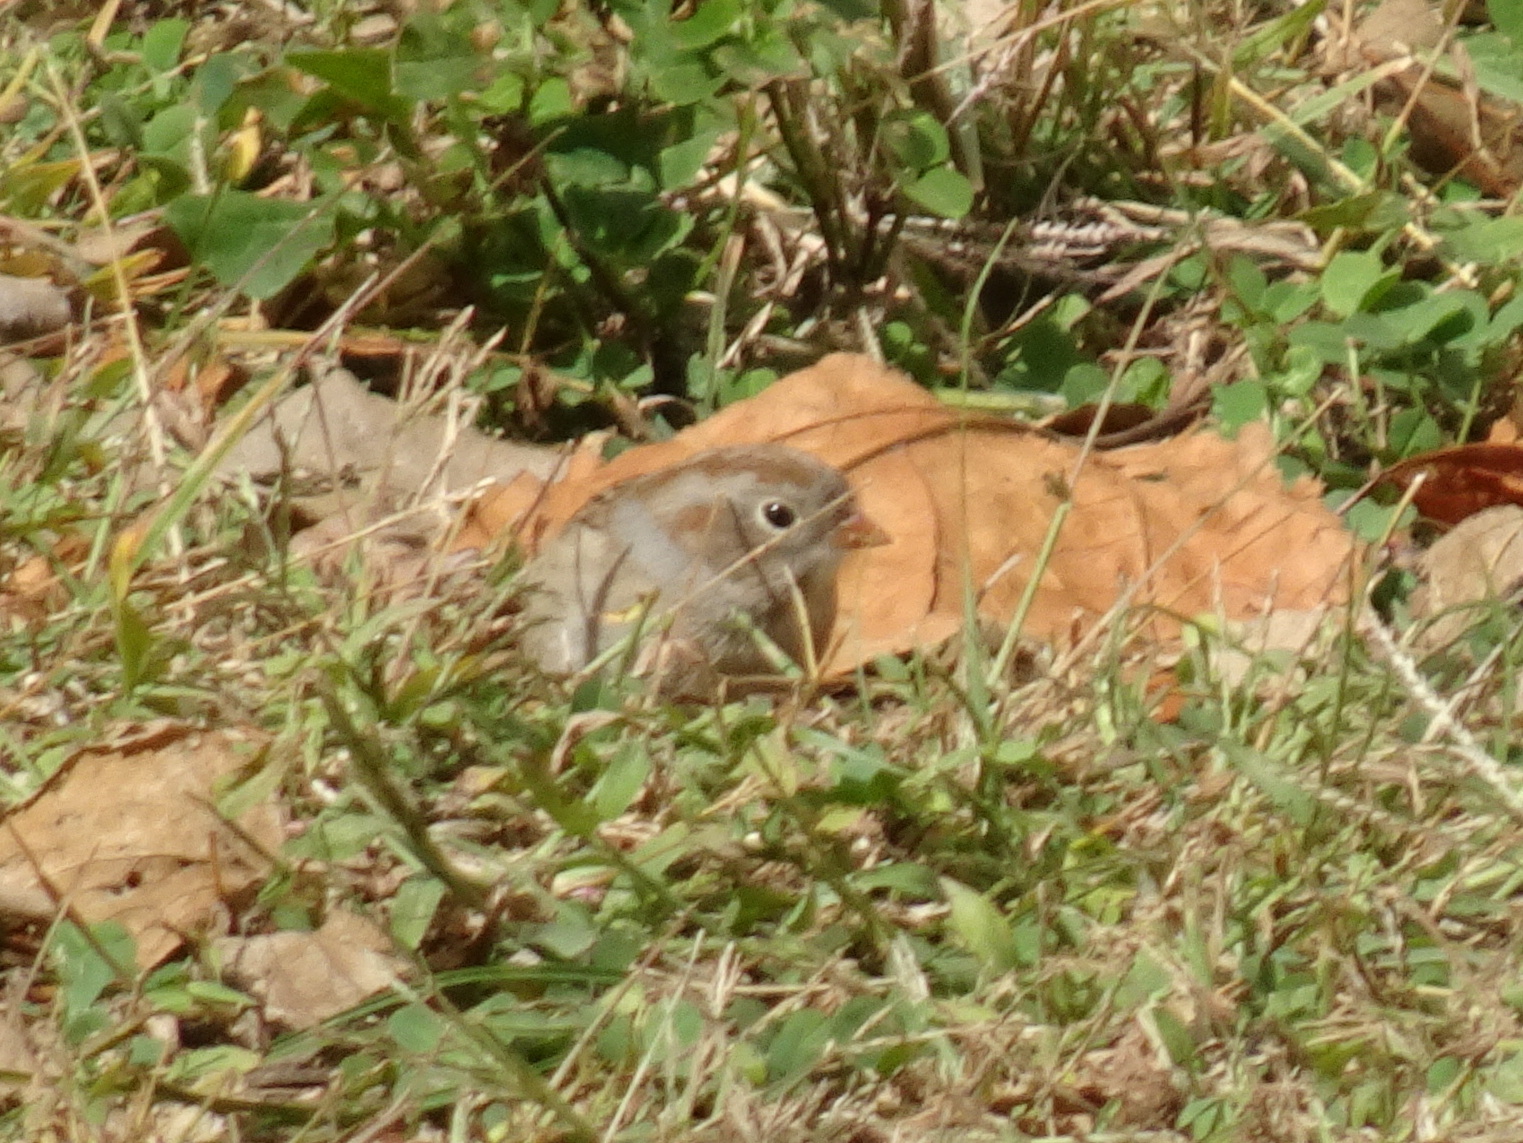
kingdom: Animalia
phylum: Chordata
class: Aves
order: Passeriformes
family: Passerellidae
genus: Spizella
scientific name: Spizella pusilla
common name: Field sparrow
